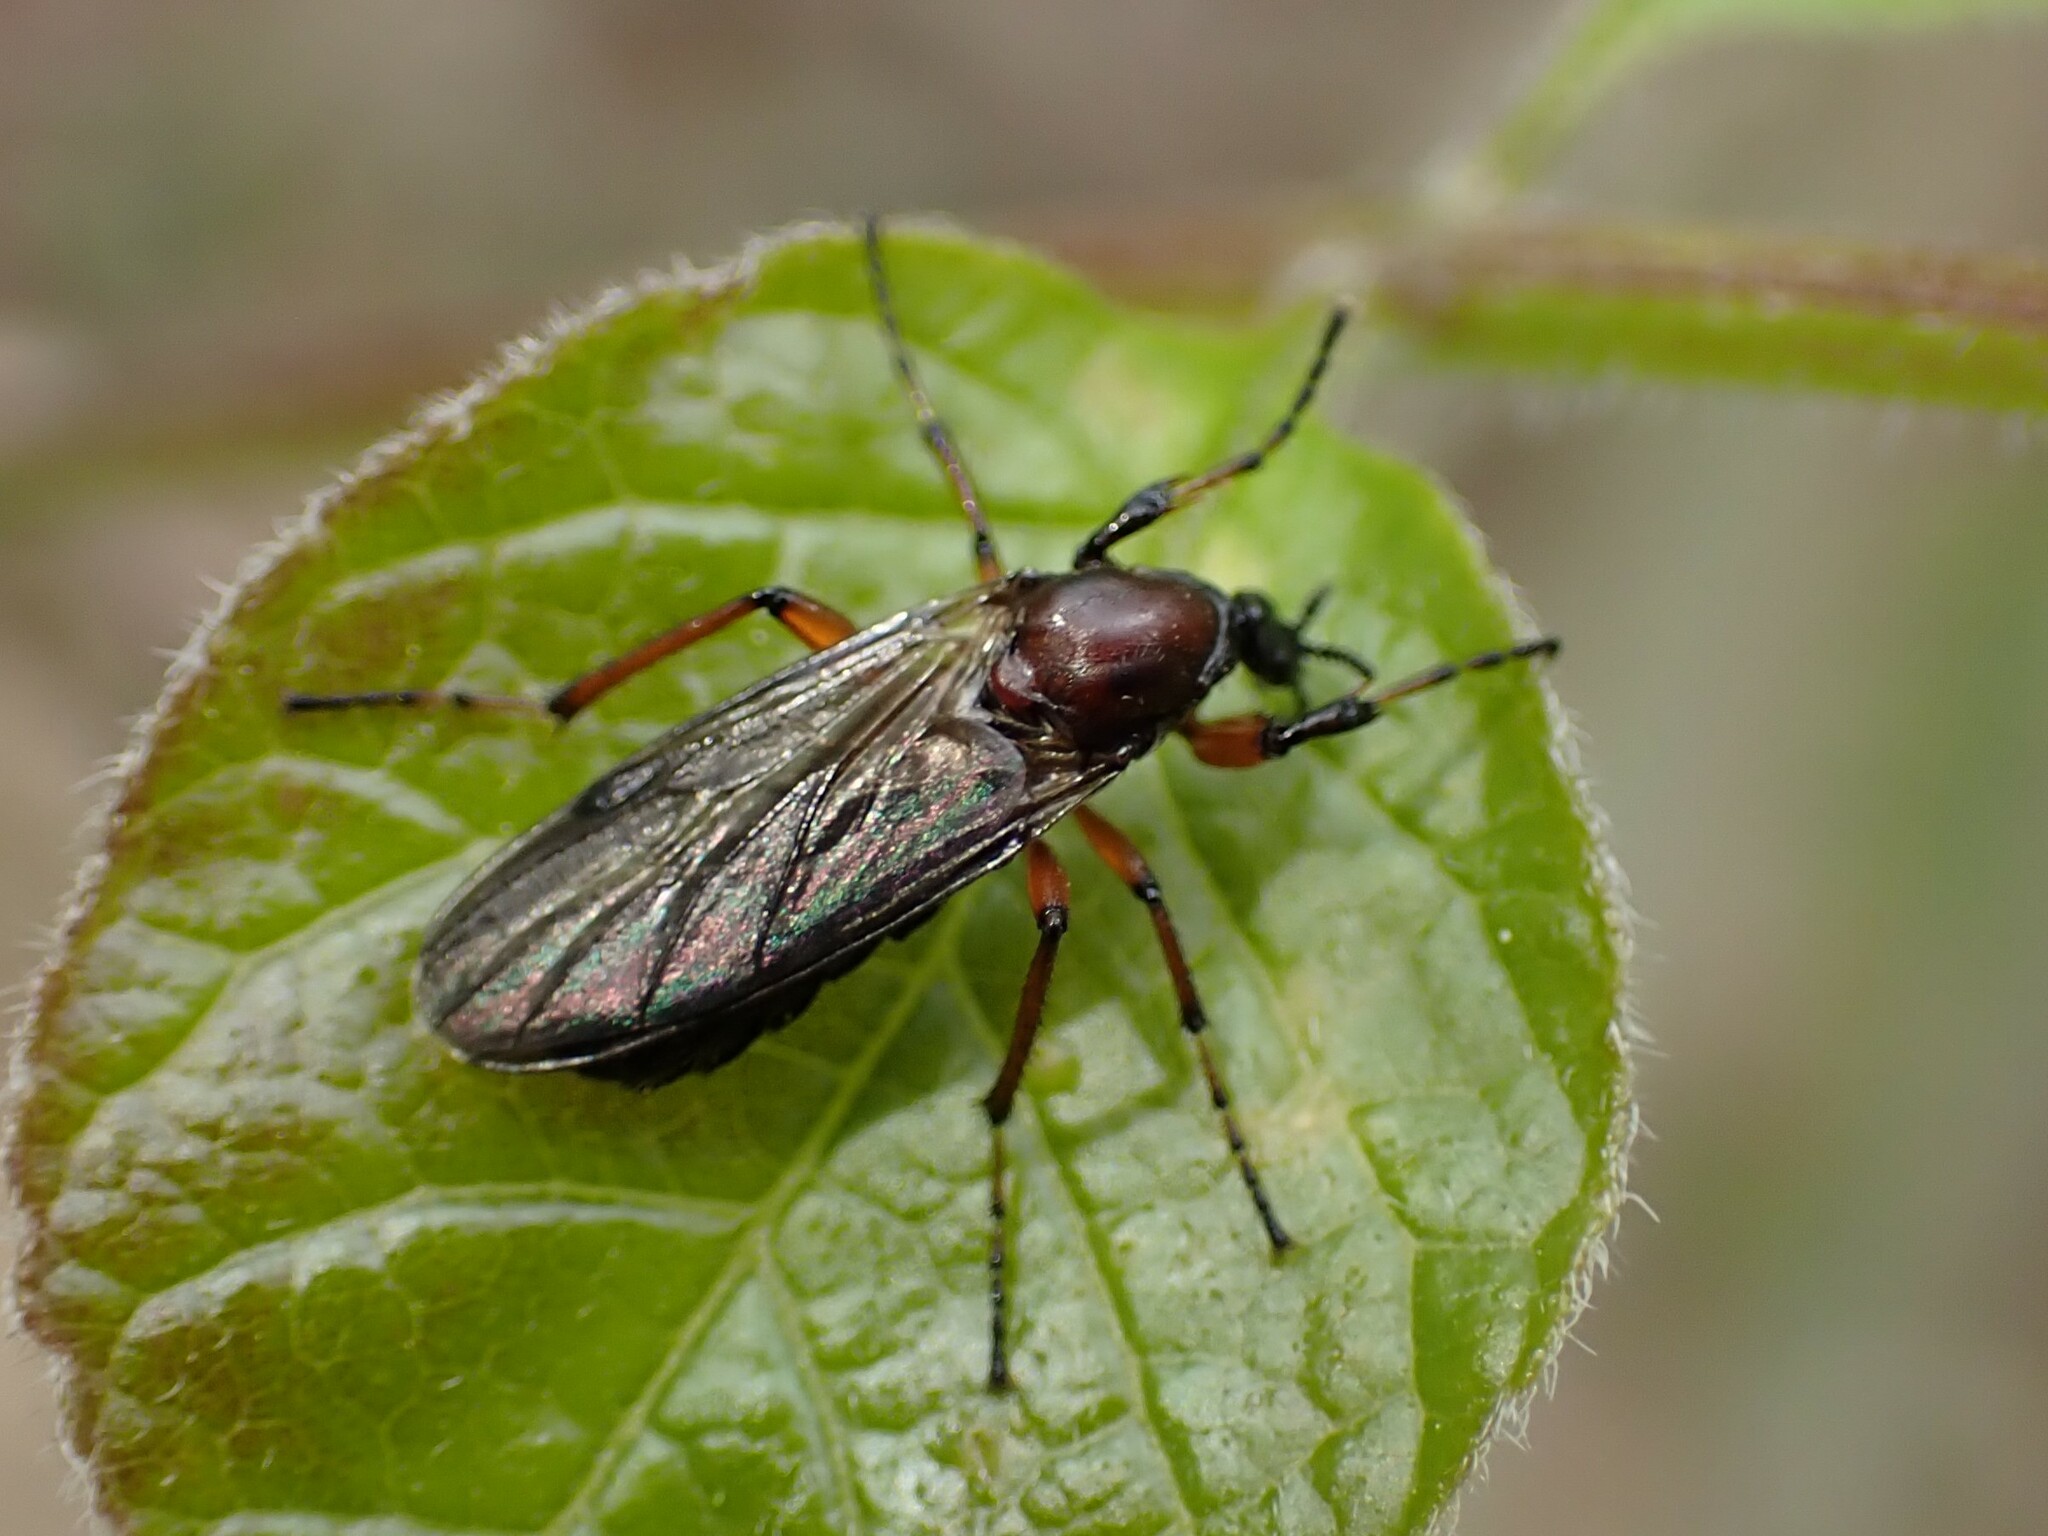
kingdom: Animalia
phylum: Arthropoda
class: Insecta
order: Diptera
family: Bibionidae
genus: Bibio
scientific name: Bibio articulatus
